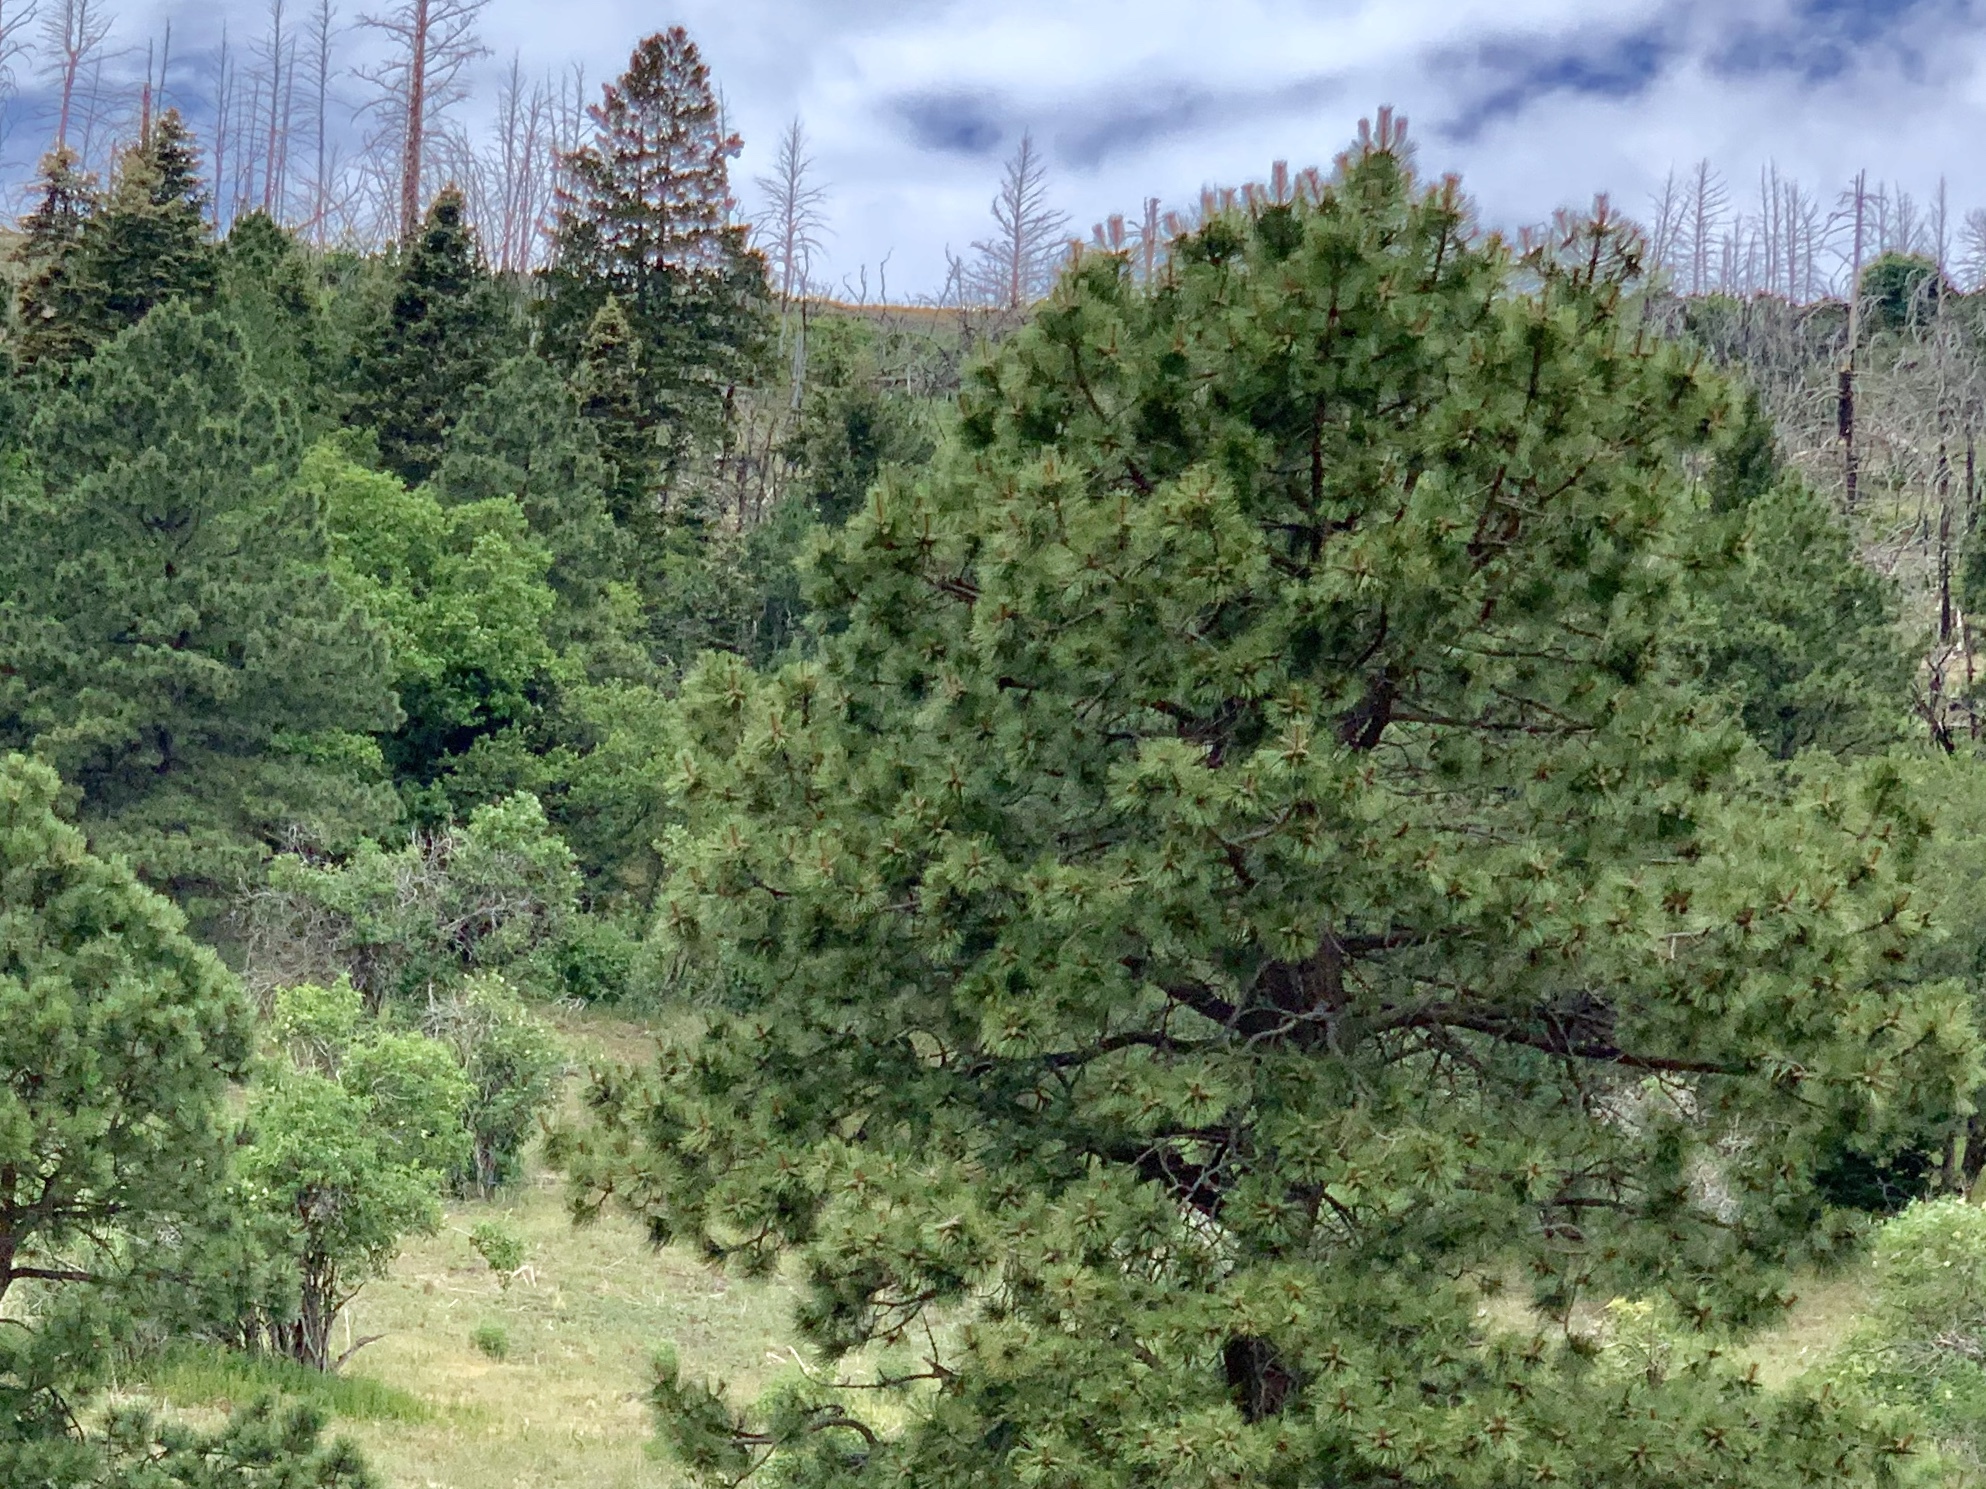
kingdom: Plantae
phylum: Tracheophyta
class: Pinopsida
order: Pinales
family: Pinaceae
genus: Pinus
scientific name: Pinus ponderosa
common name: Western yellow-pine
